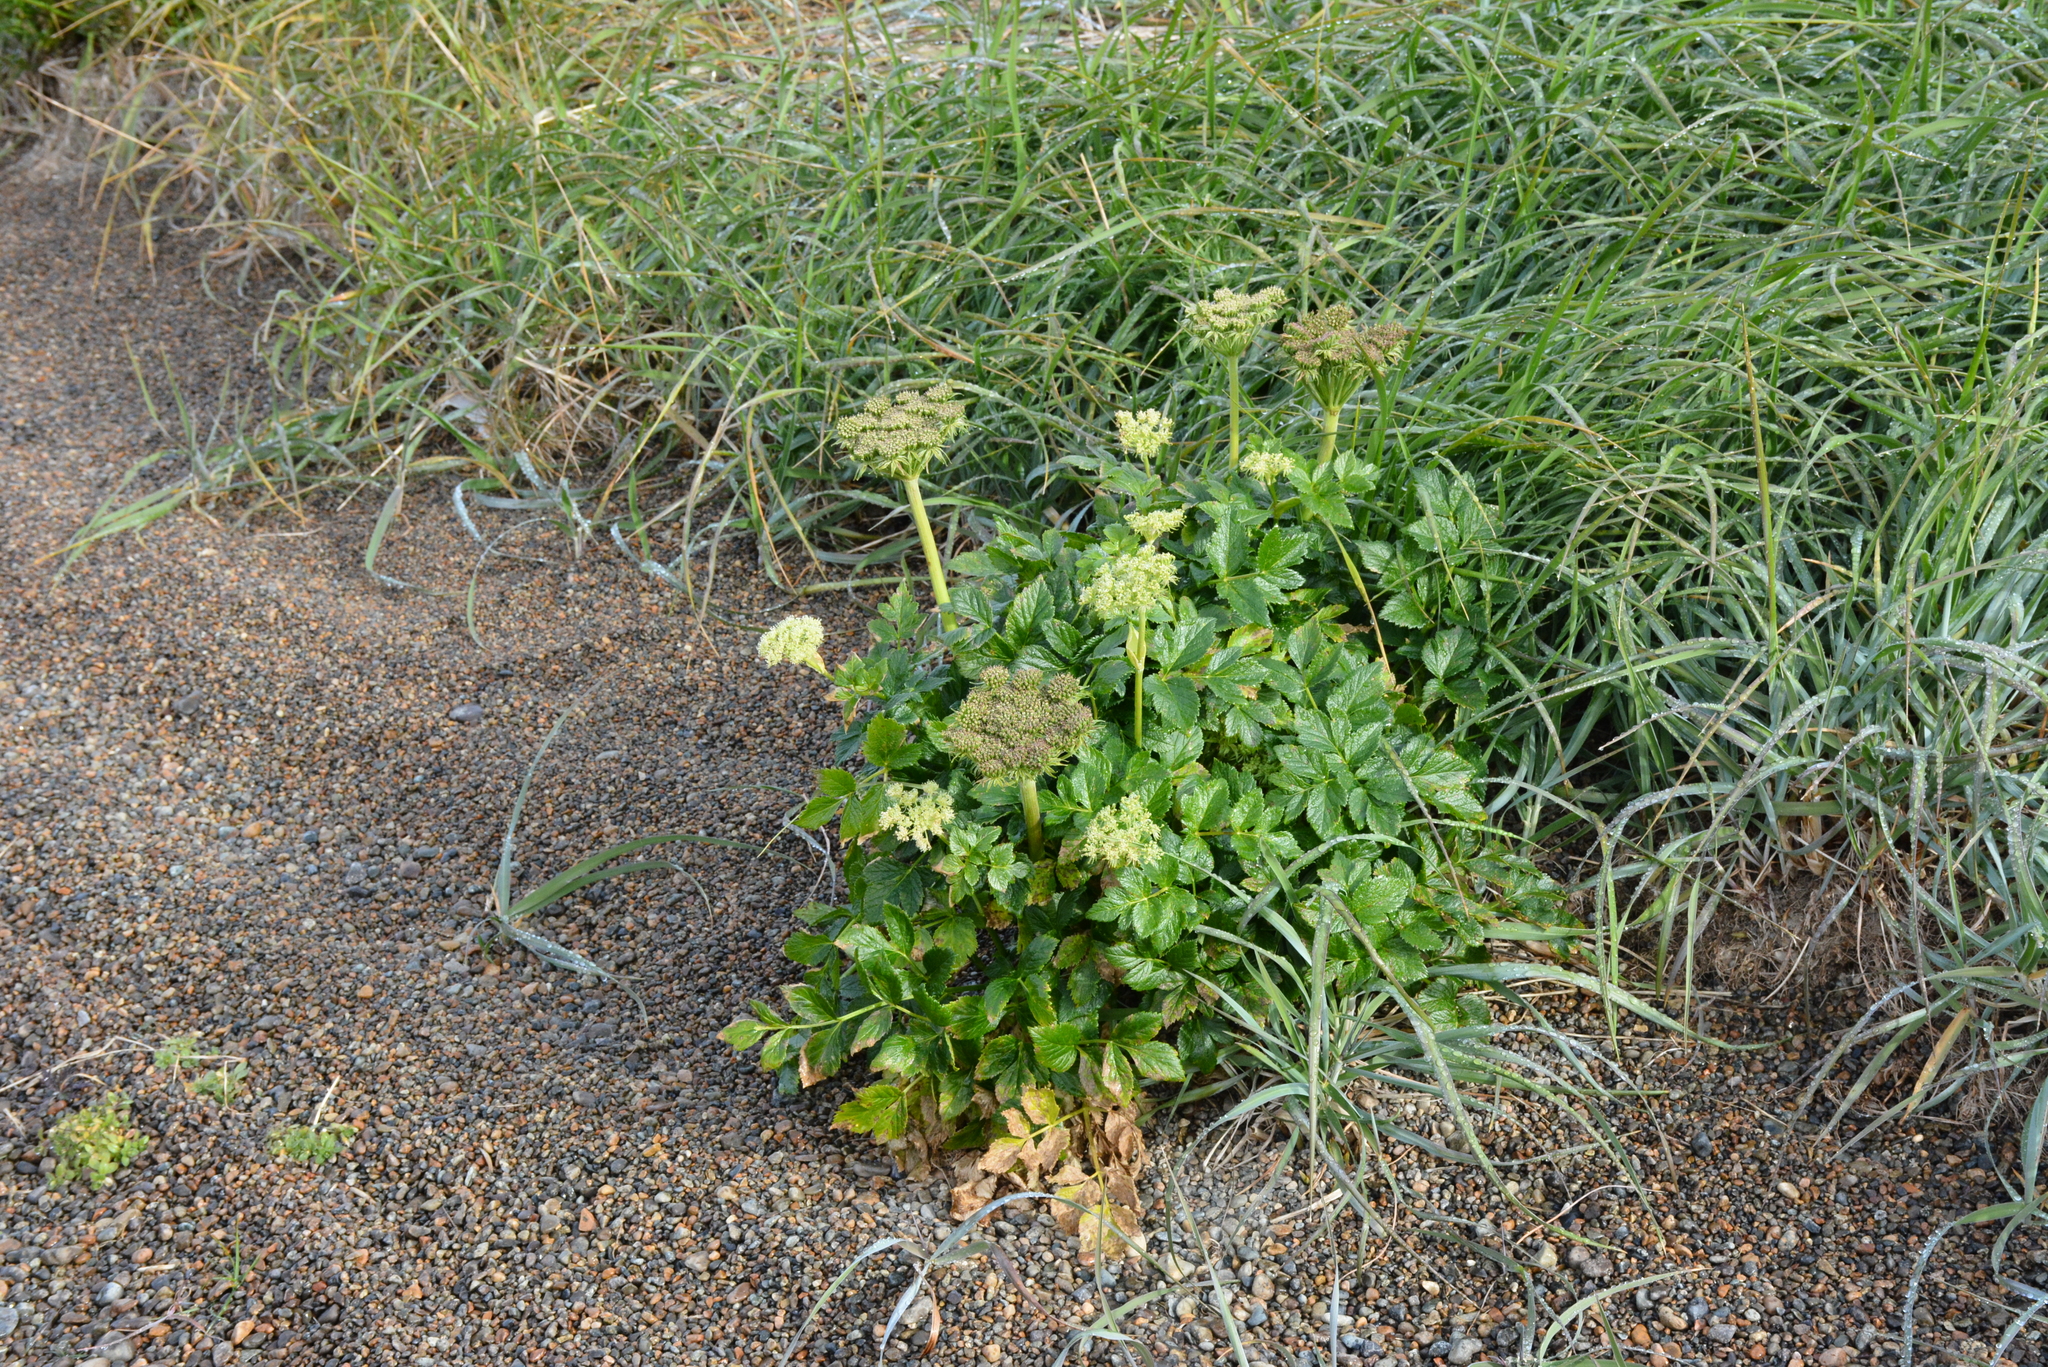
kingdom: Plantae
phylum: Tracheophyta
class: Magnoliopsida
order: Apiales
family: Apiaceae
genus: Angelica
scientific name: Angelica gmelinii
